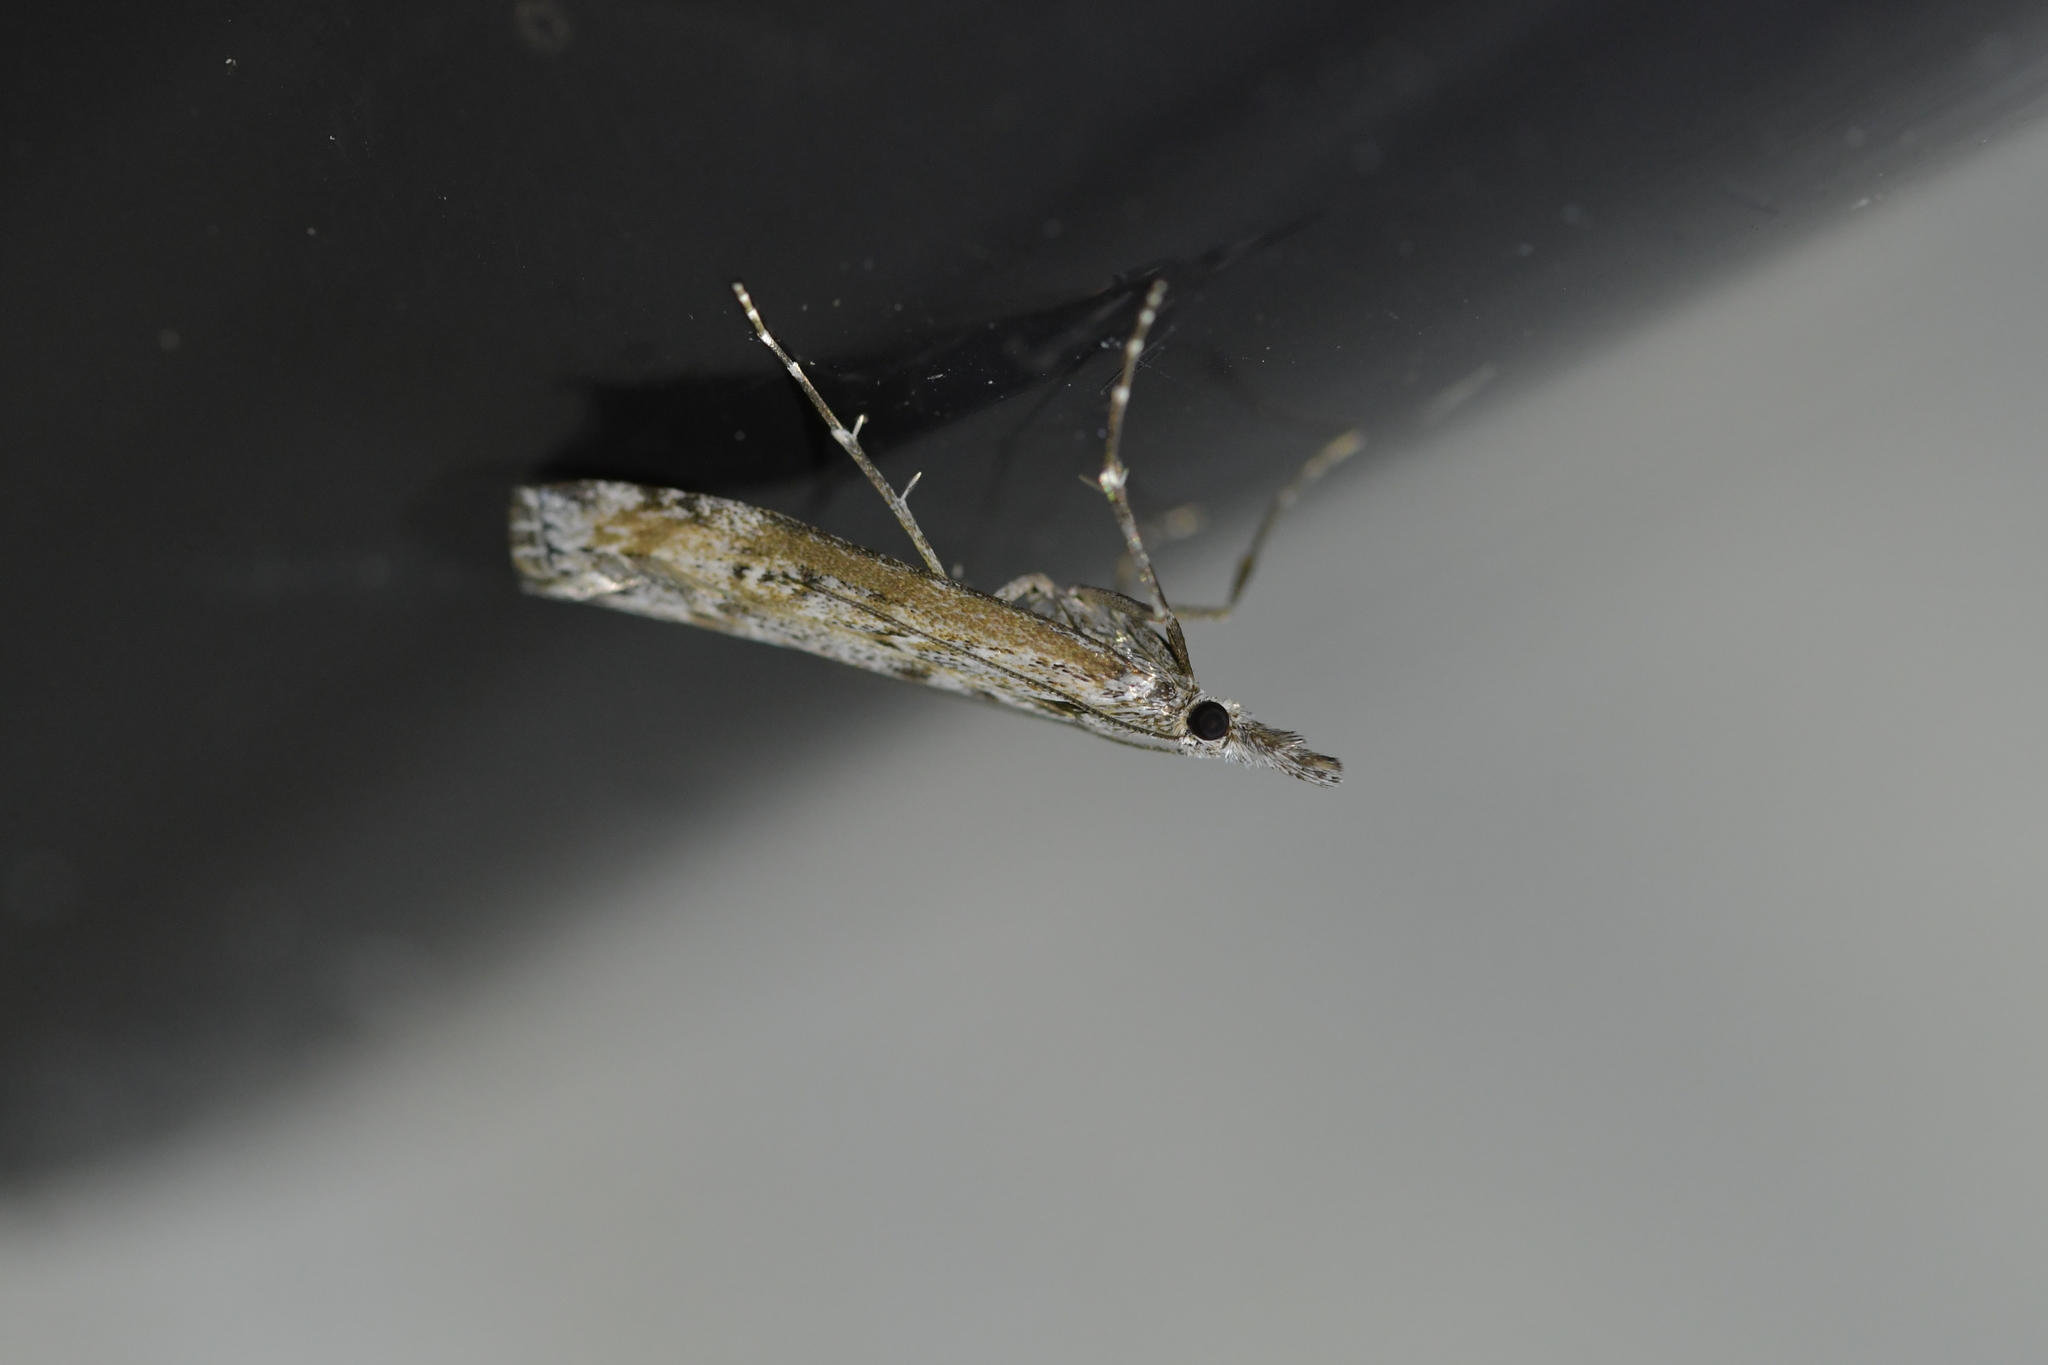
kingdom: Animalia
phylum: Arthropoda
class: Insecta
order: Lepidoptera
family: Crambidae
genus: Orocrambus
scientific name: Orocrambus cyclopicus
